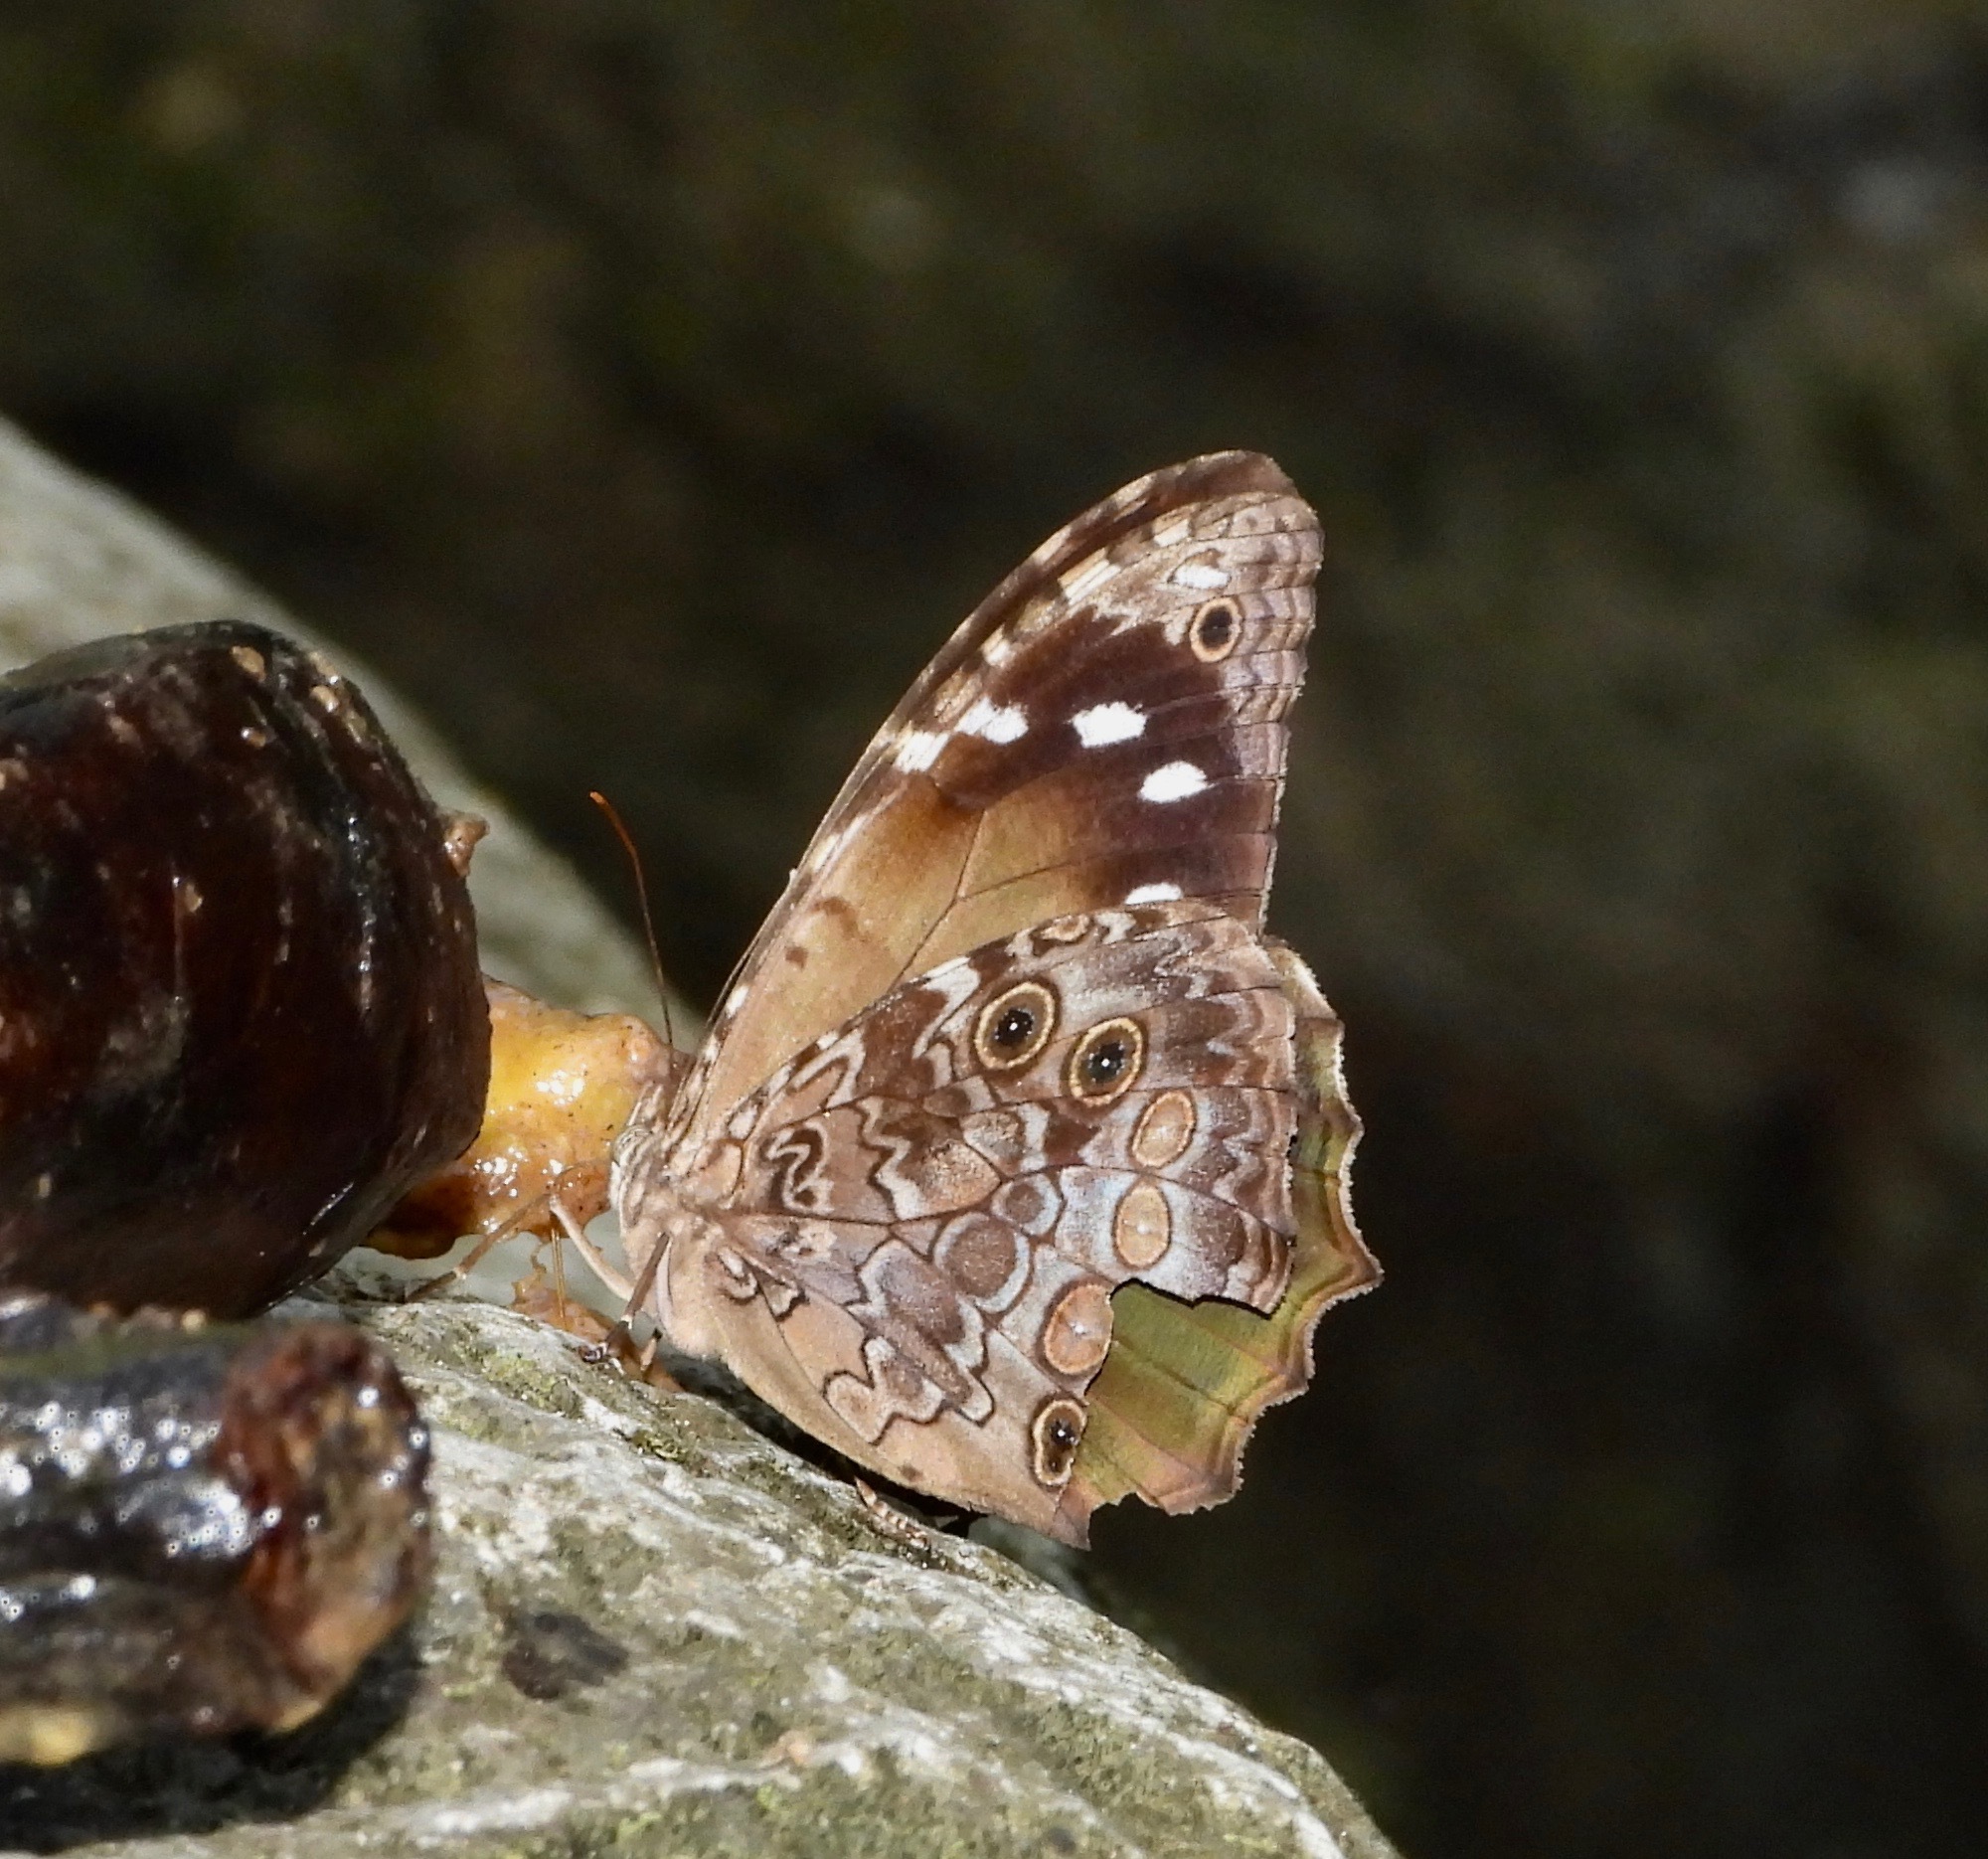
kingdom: Animalia
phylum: Arthropoda
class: Insecta
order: Lepidoptera
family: Nymphalidae
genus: Manataria
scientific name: Manataria maculata
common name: White-spotted satyr
